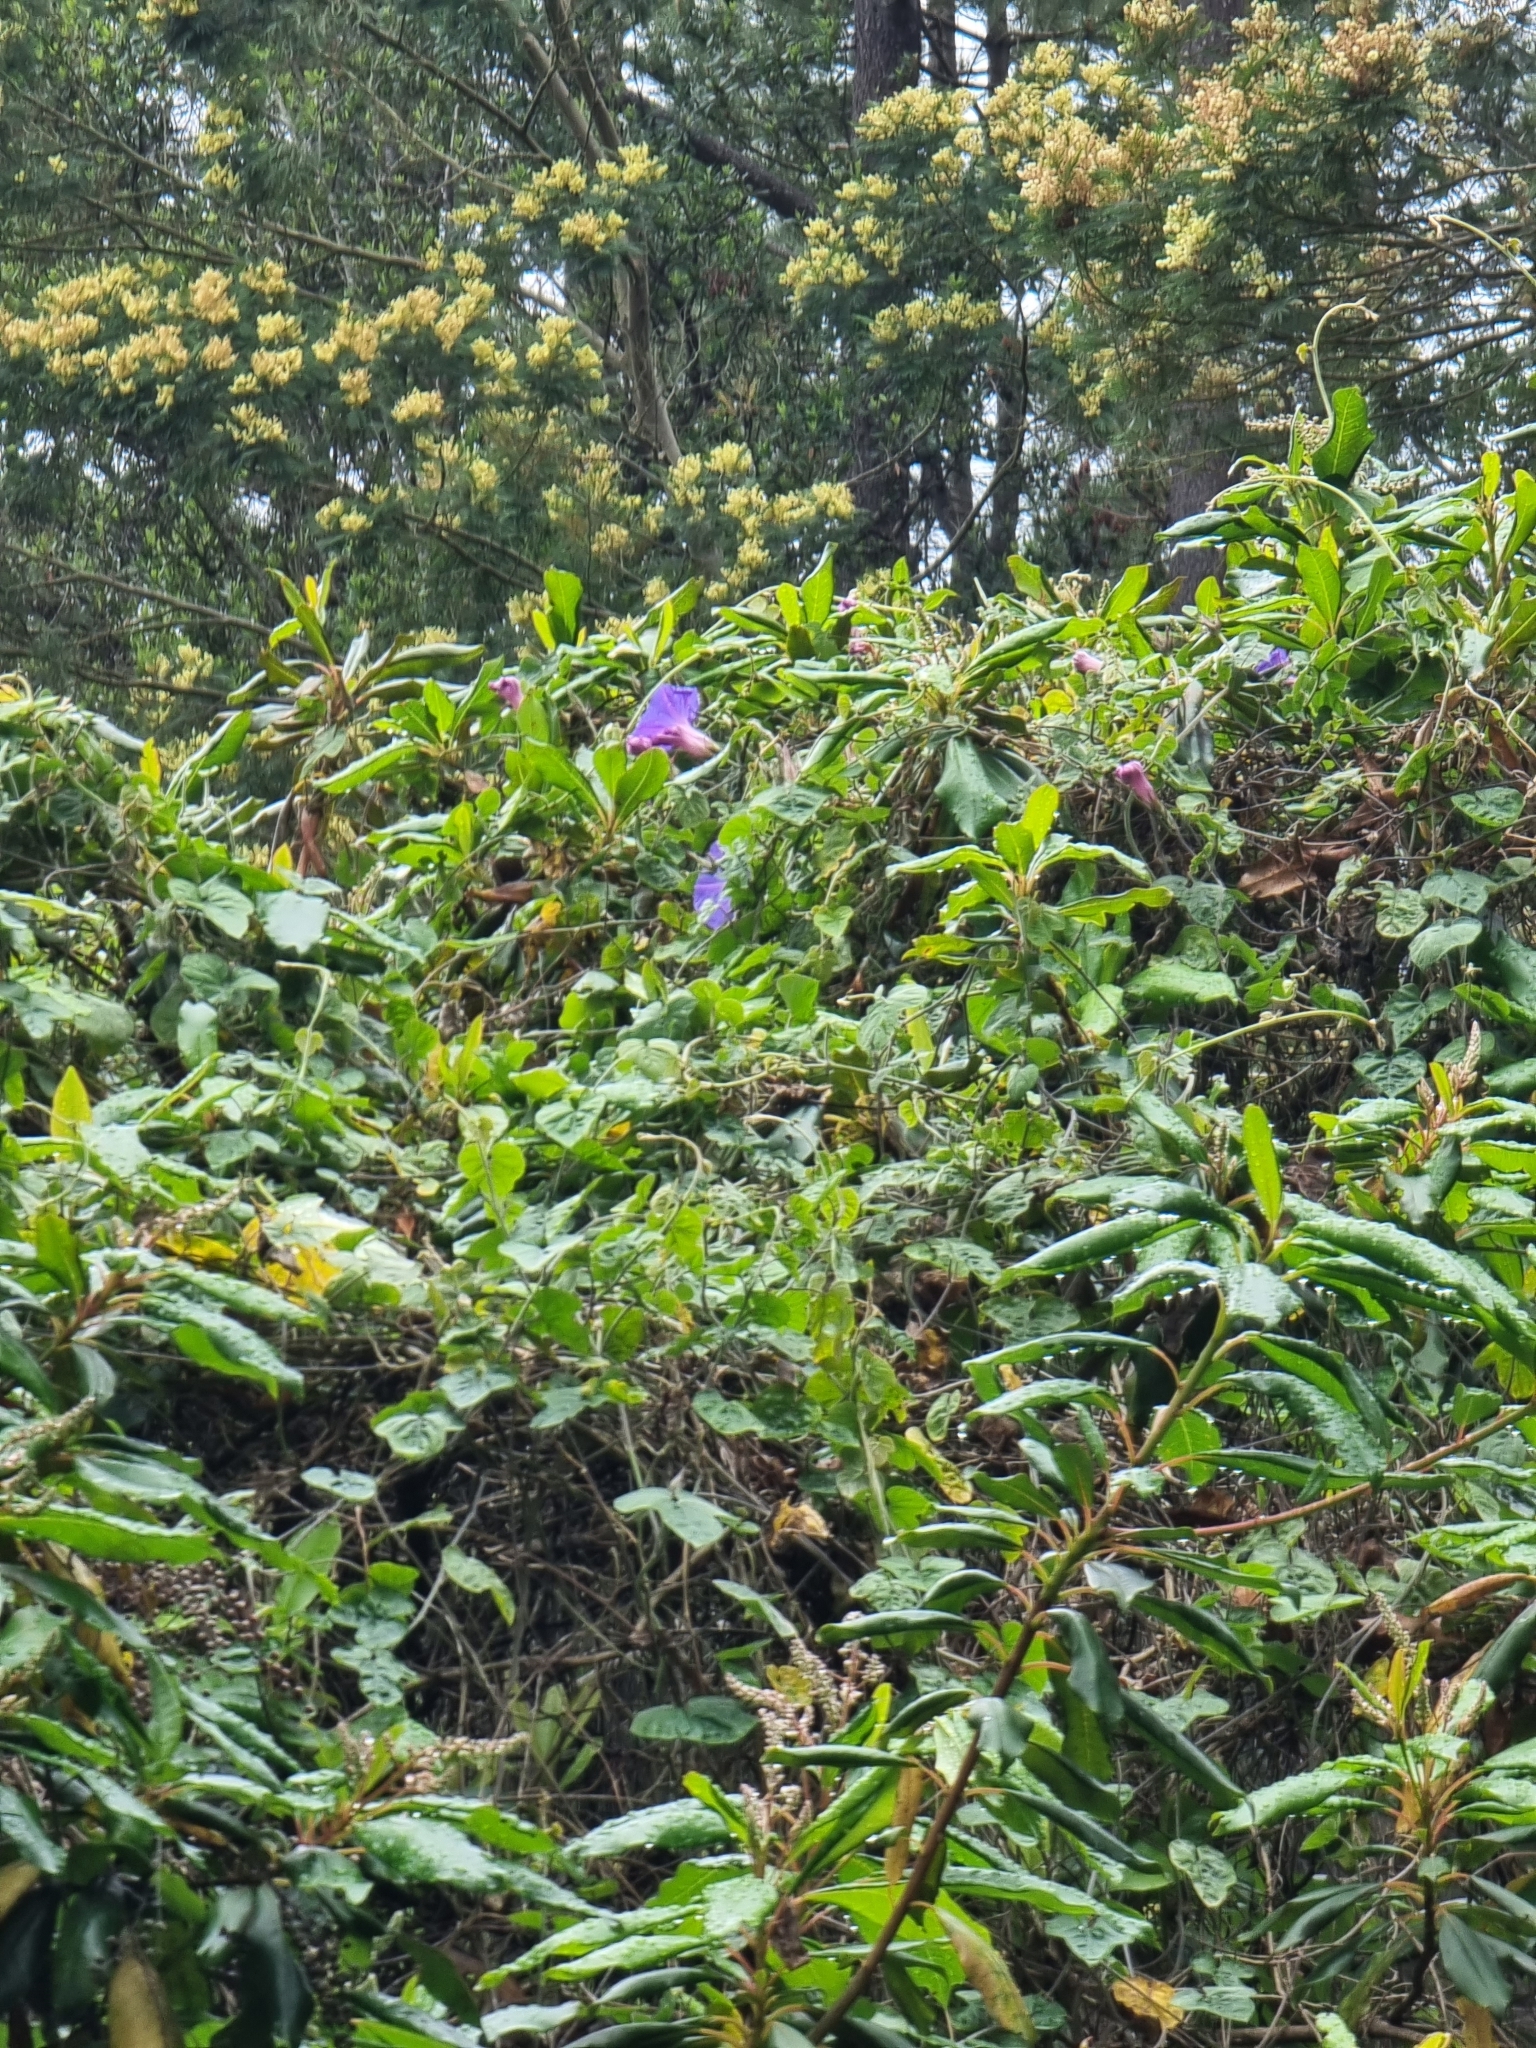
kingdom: Plantae
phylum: Tracheophyta
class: Magnoliopsida
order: Solanales
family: Convolvulaceae
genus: Ipomoea
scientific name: Ipomoea indica
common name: Blue dawnflower
